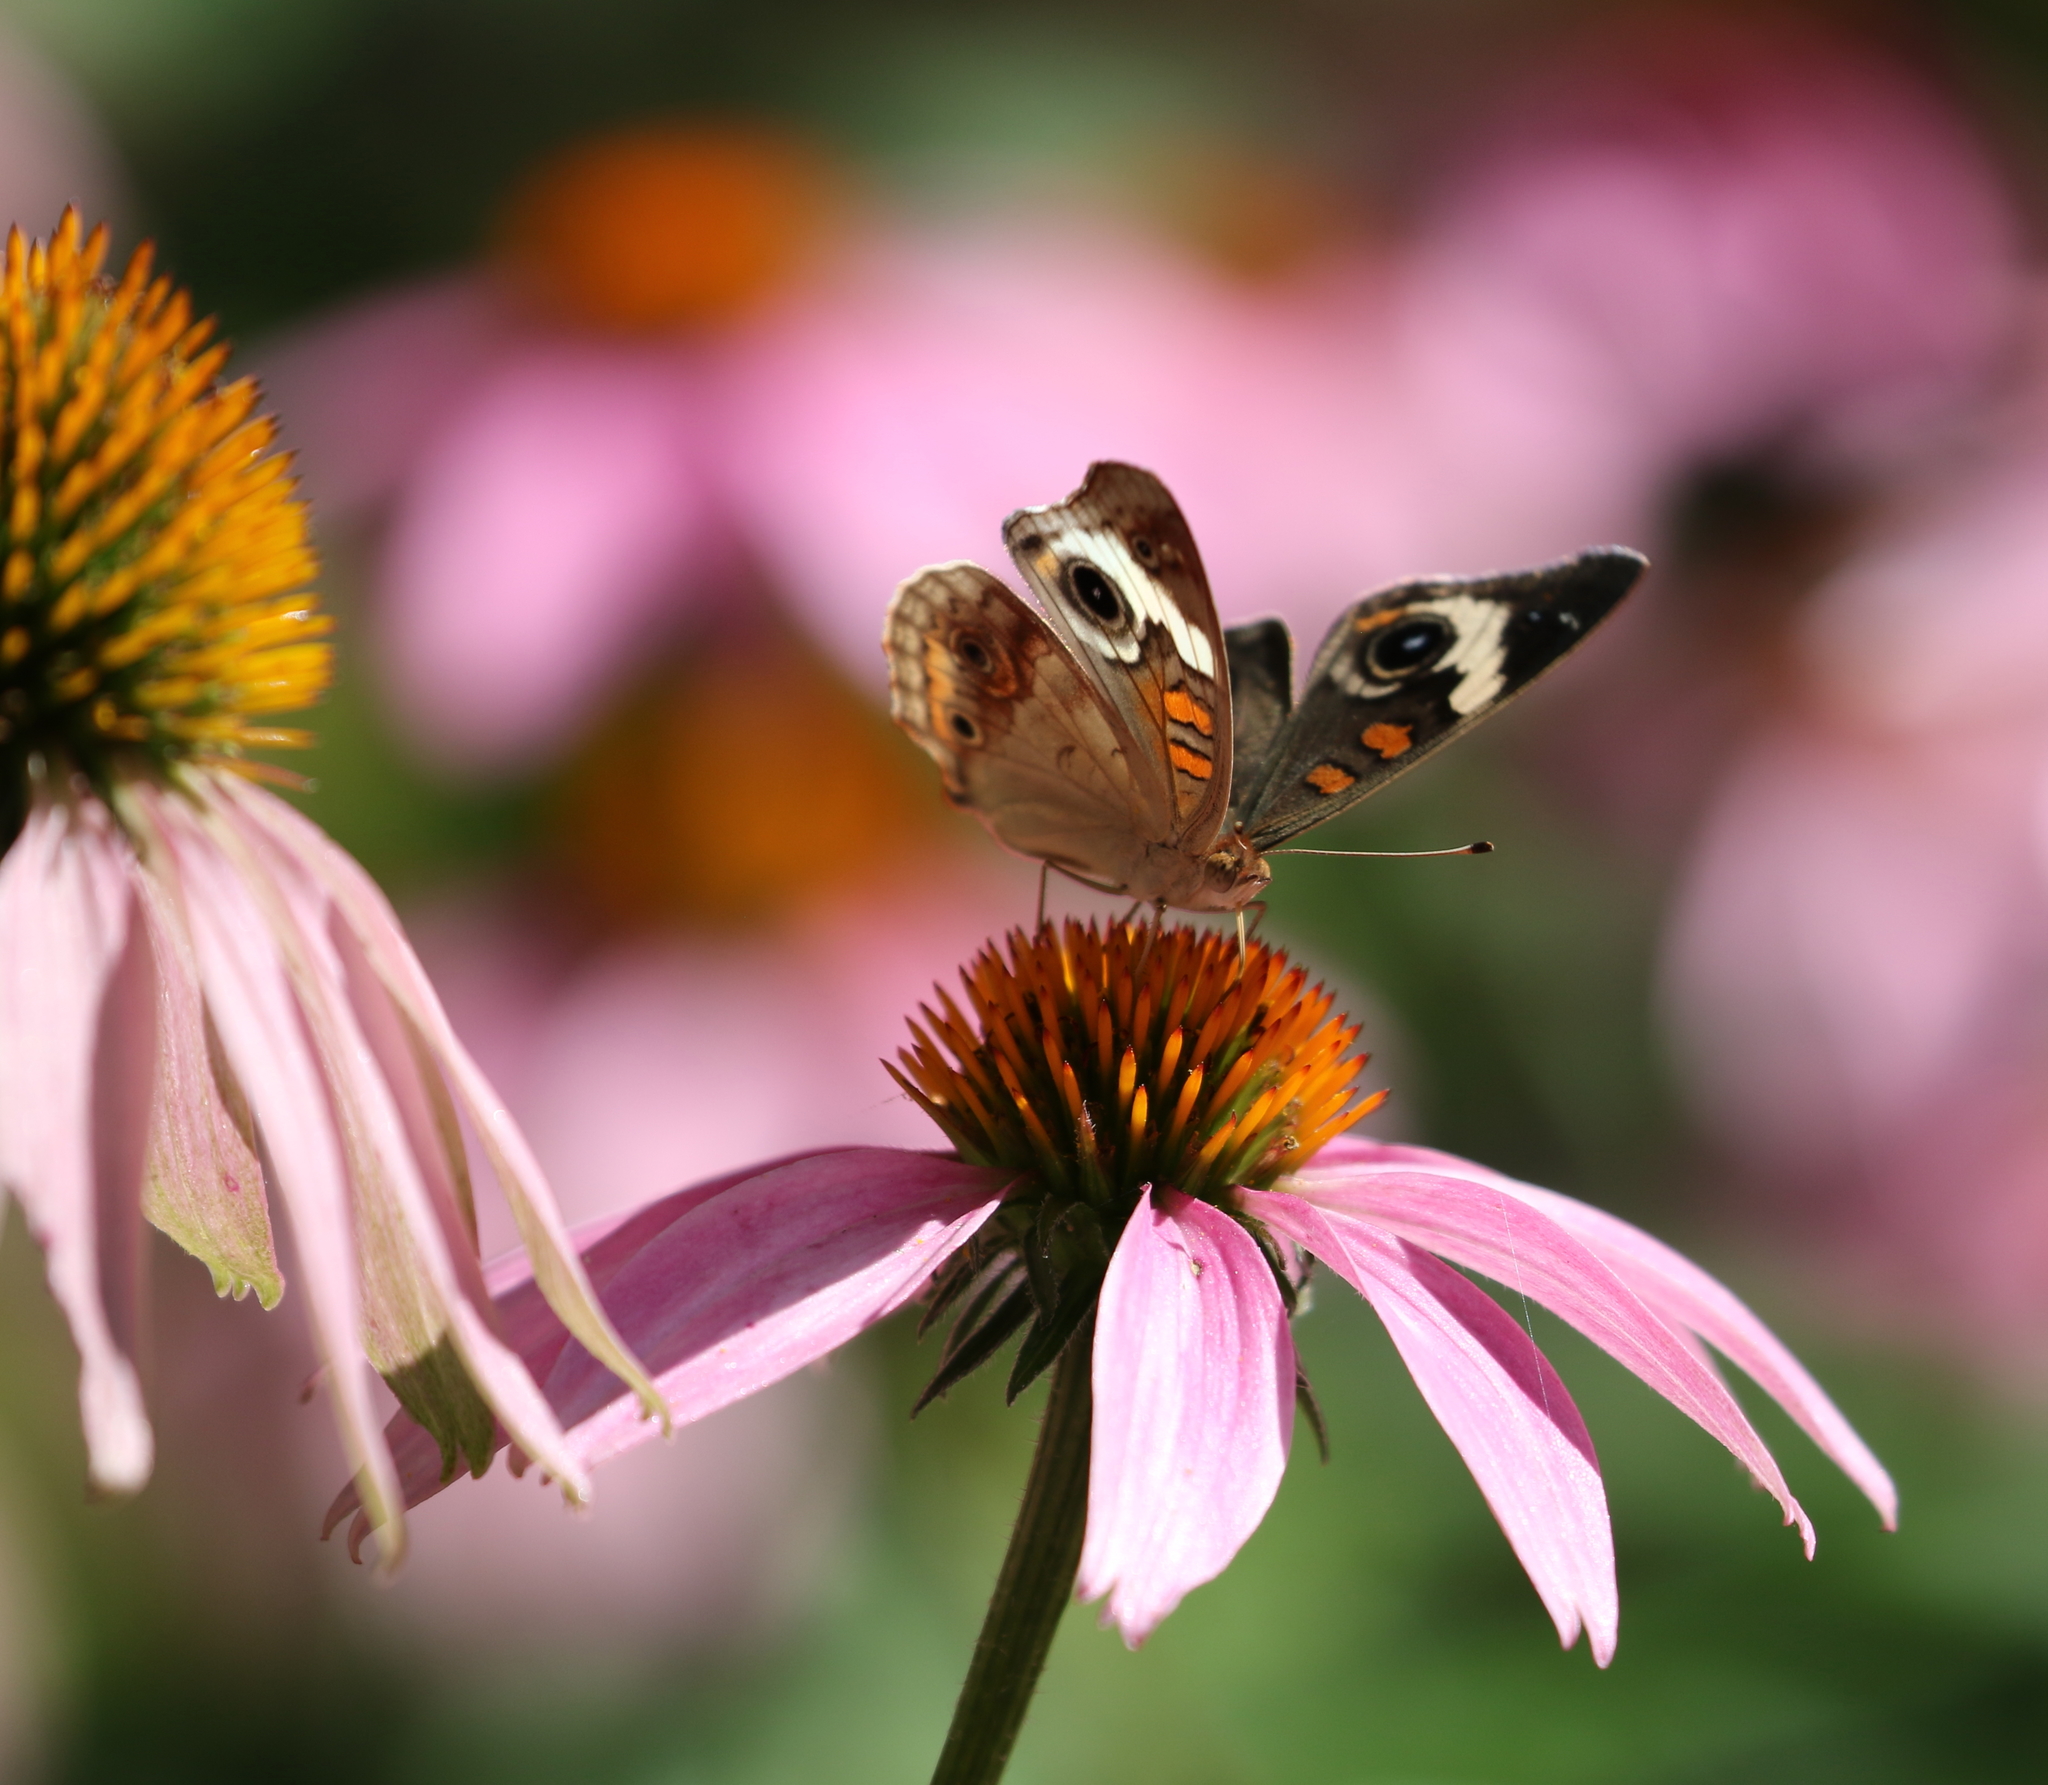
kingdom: Animalia
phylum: Arthropoda
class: Insecta
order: Lepidoptera
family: Nymphalidae
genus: Junonia
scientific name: Junonia coenia
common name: Common buckeye
